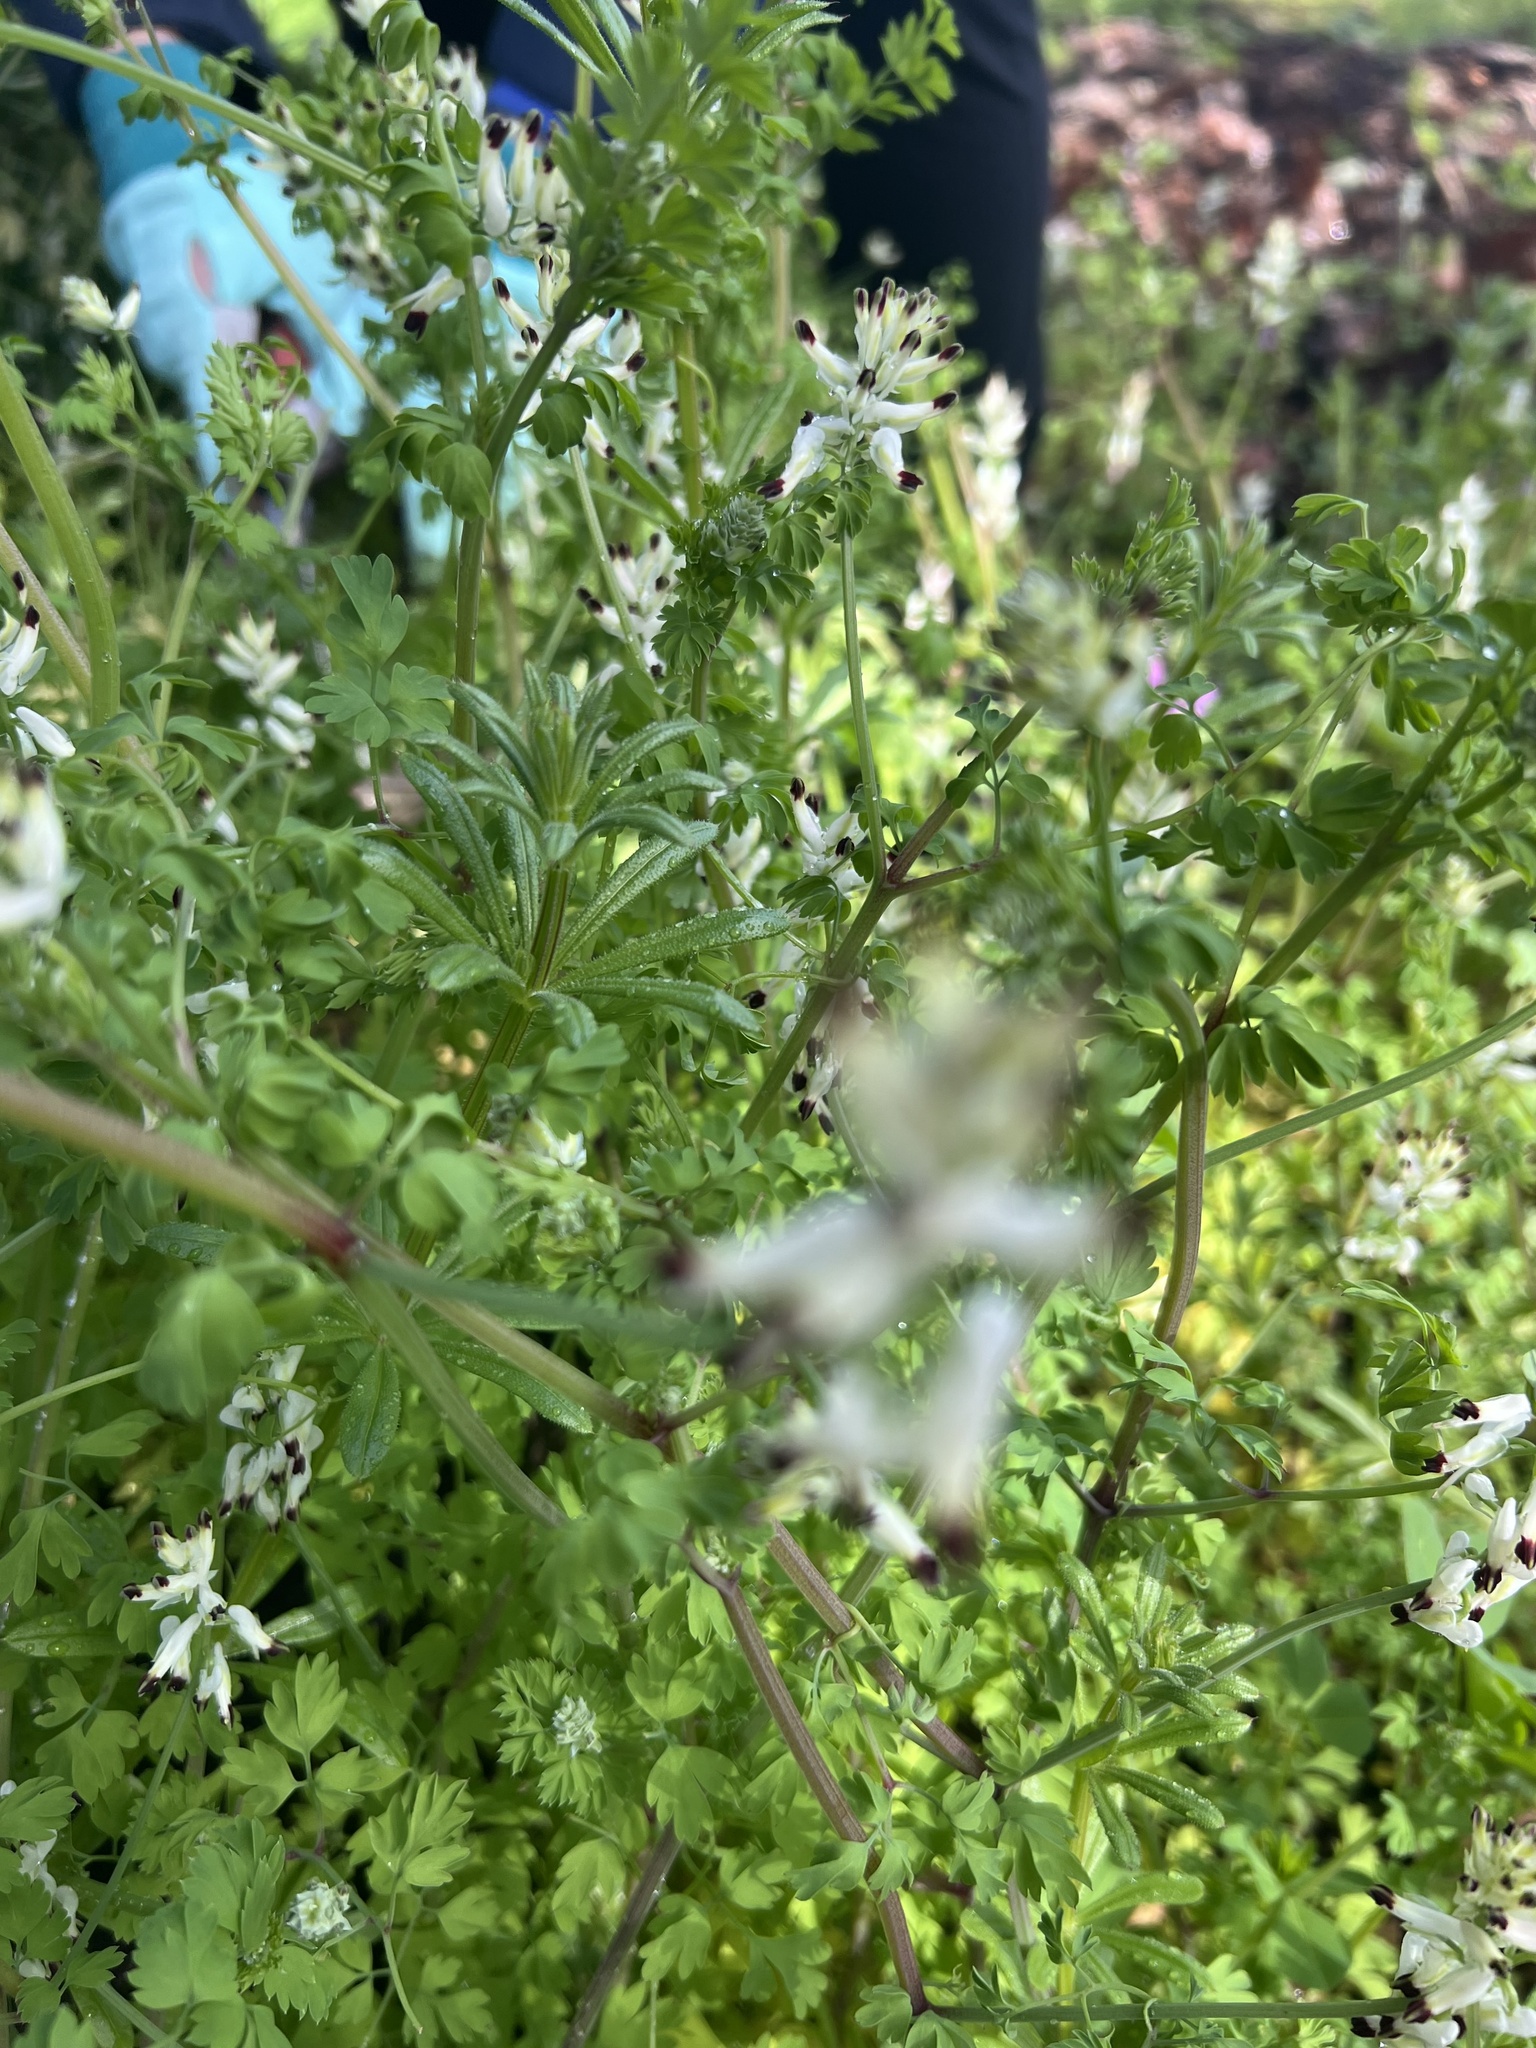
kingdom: Plantae
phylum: Tracheophyta
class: Magnoliopsida
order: Ranunculales
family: Papaveraceae
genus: Fumaria
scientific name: Fumaria capreolata
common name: White ramping-fumitory
